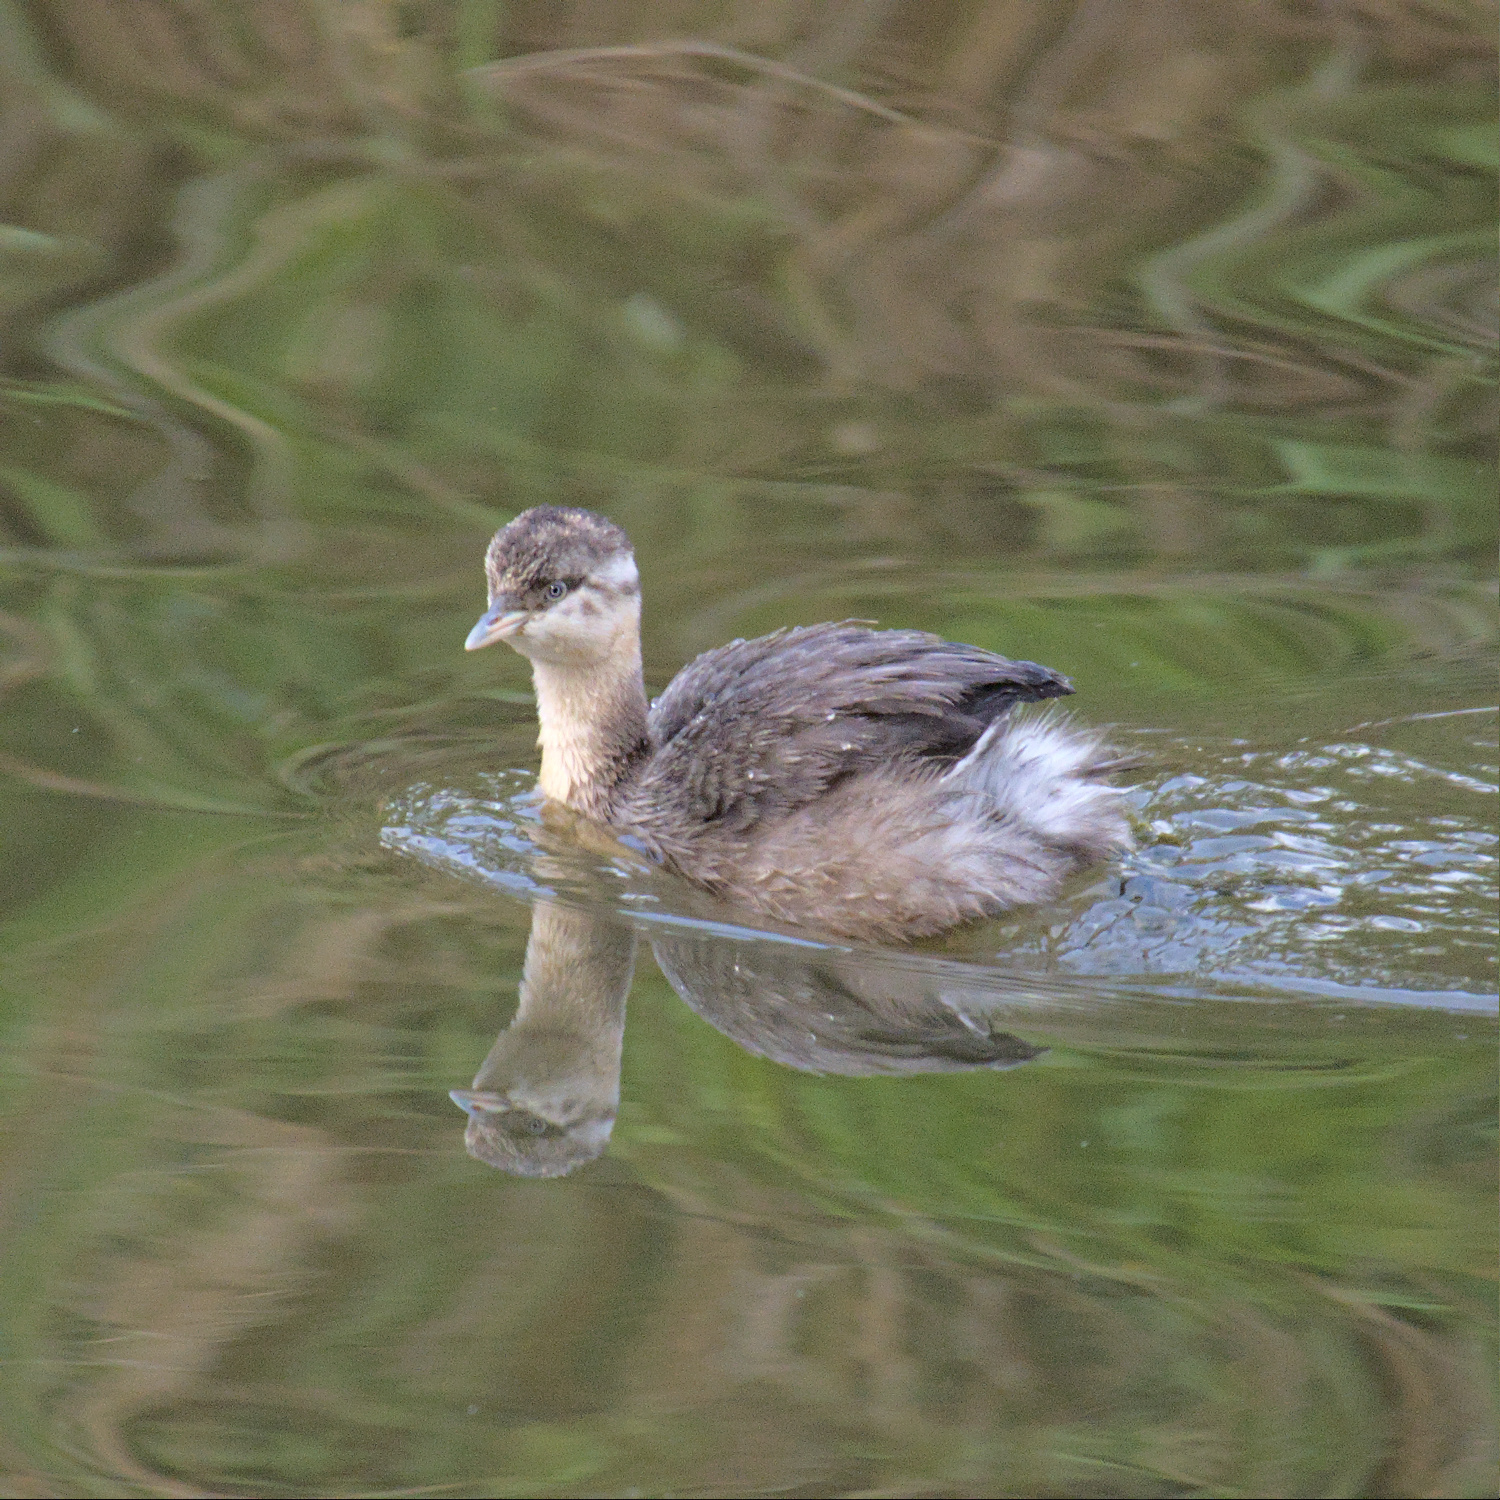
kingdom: Animalia
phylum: Chordata
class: Aves
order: Podicipediformes
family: Podicipedidae
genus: Poliocephalus
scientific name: Poliocephalus poliocephalus
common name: Hoary-headed grebe
